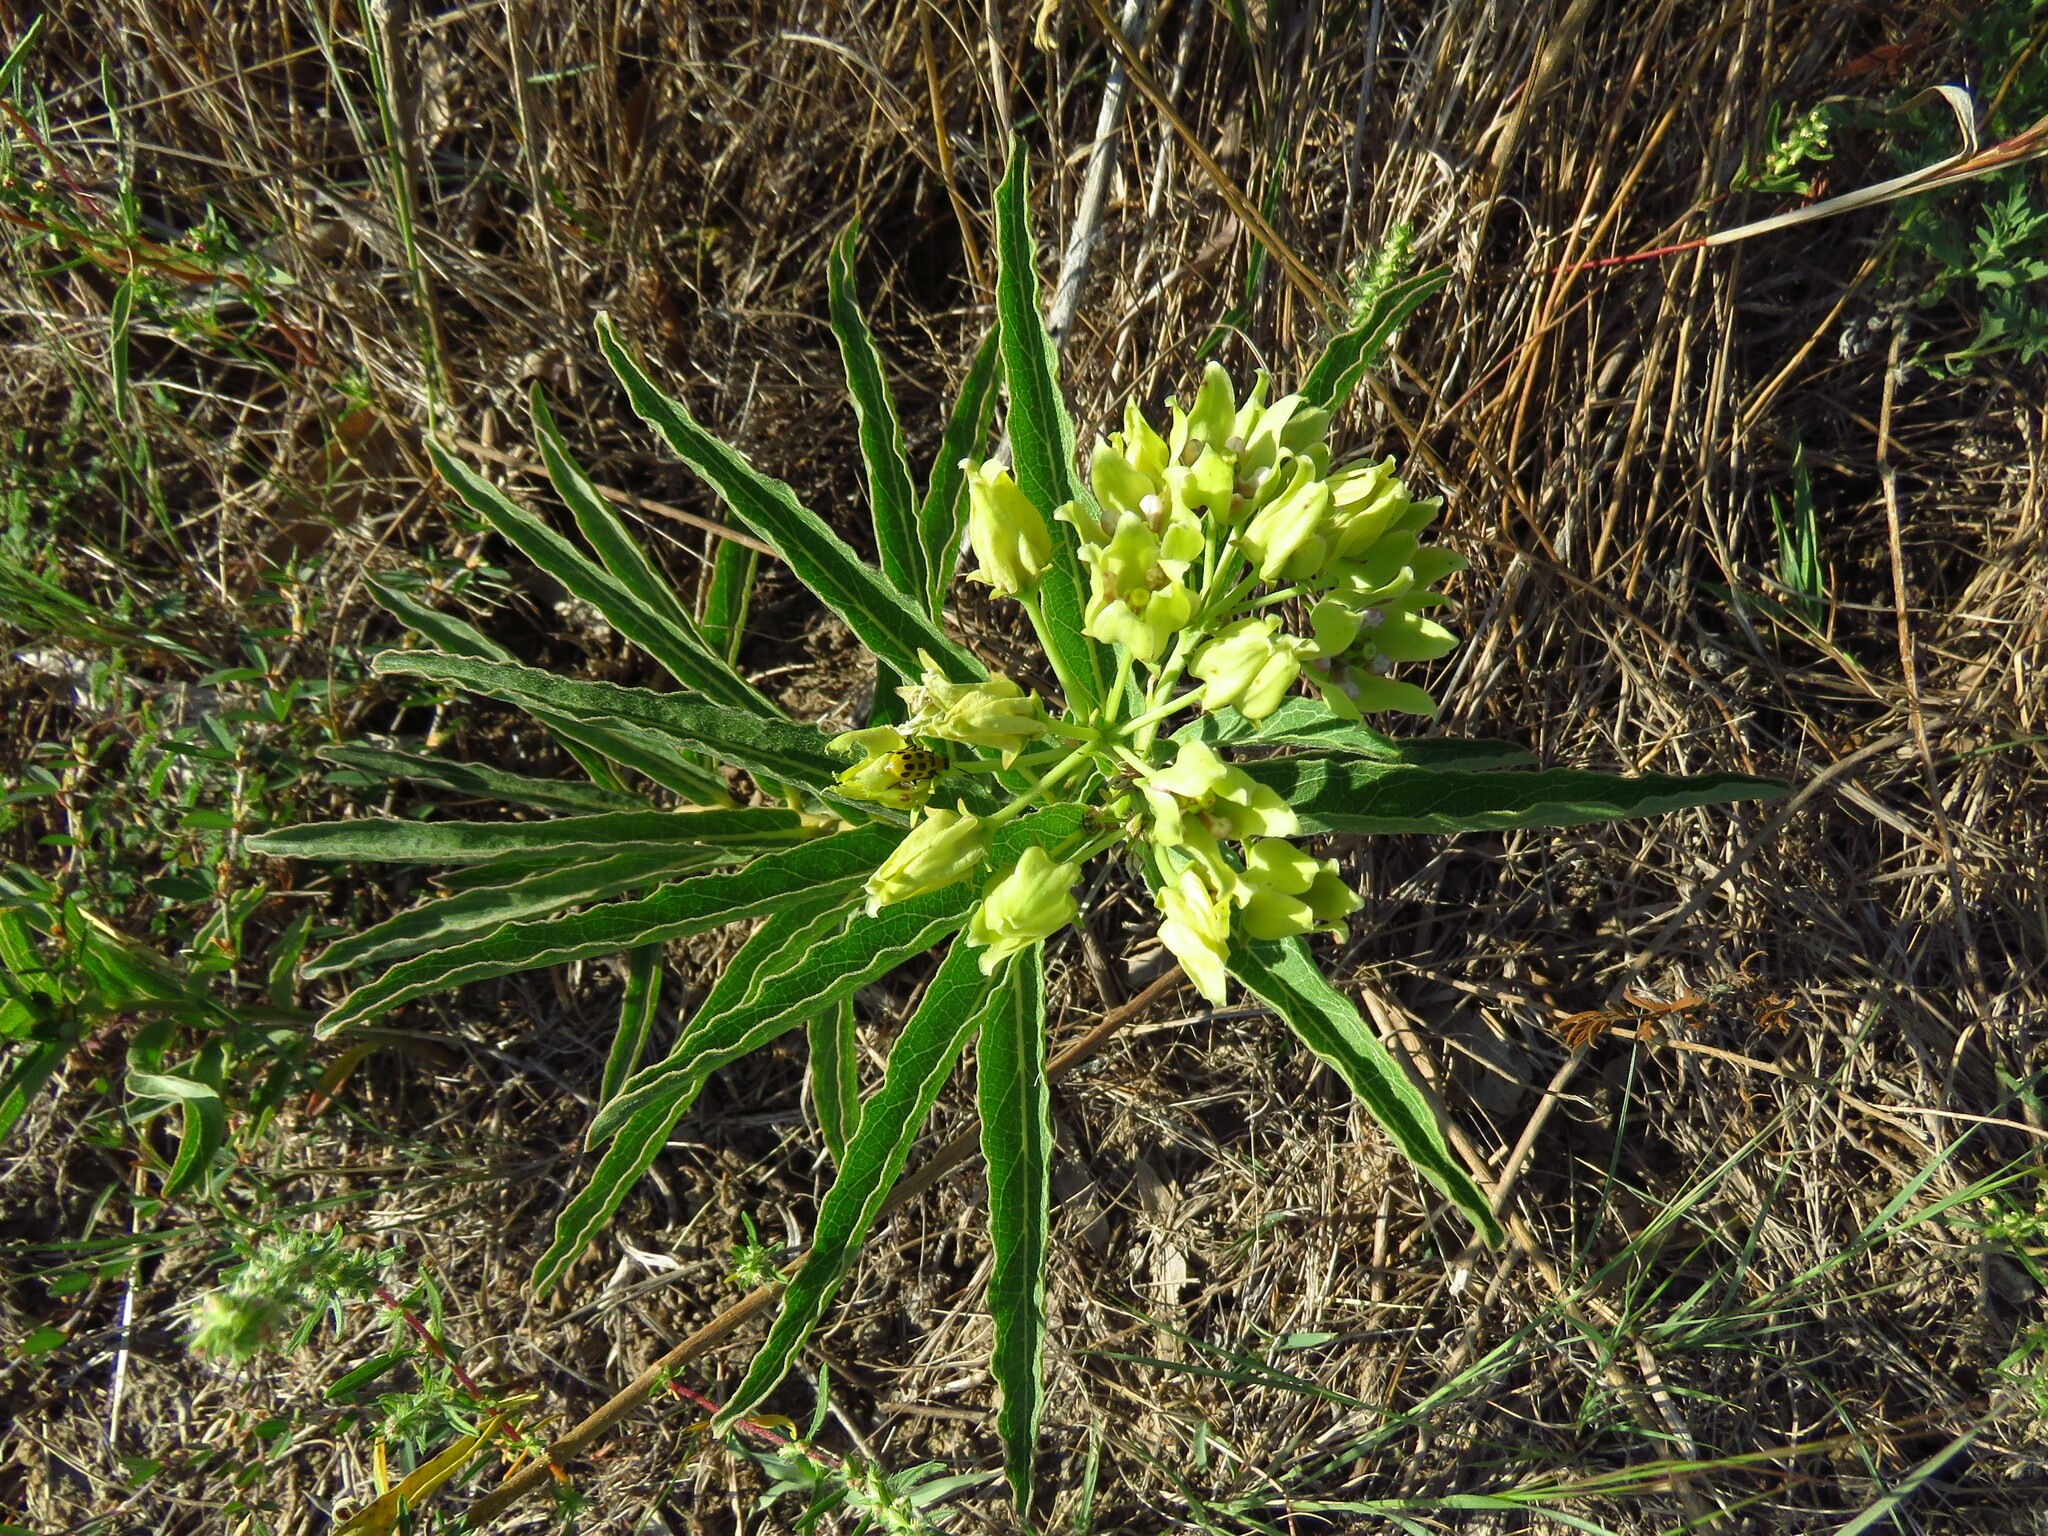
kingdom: Plantae
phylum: Tracheophyta
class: Magnoliopsida
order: Gentianales
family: Apocynaceae
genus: Asclepias
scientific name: Asclepias viridis
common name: Antelope-horns
